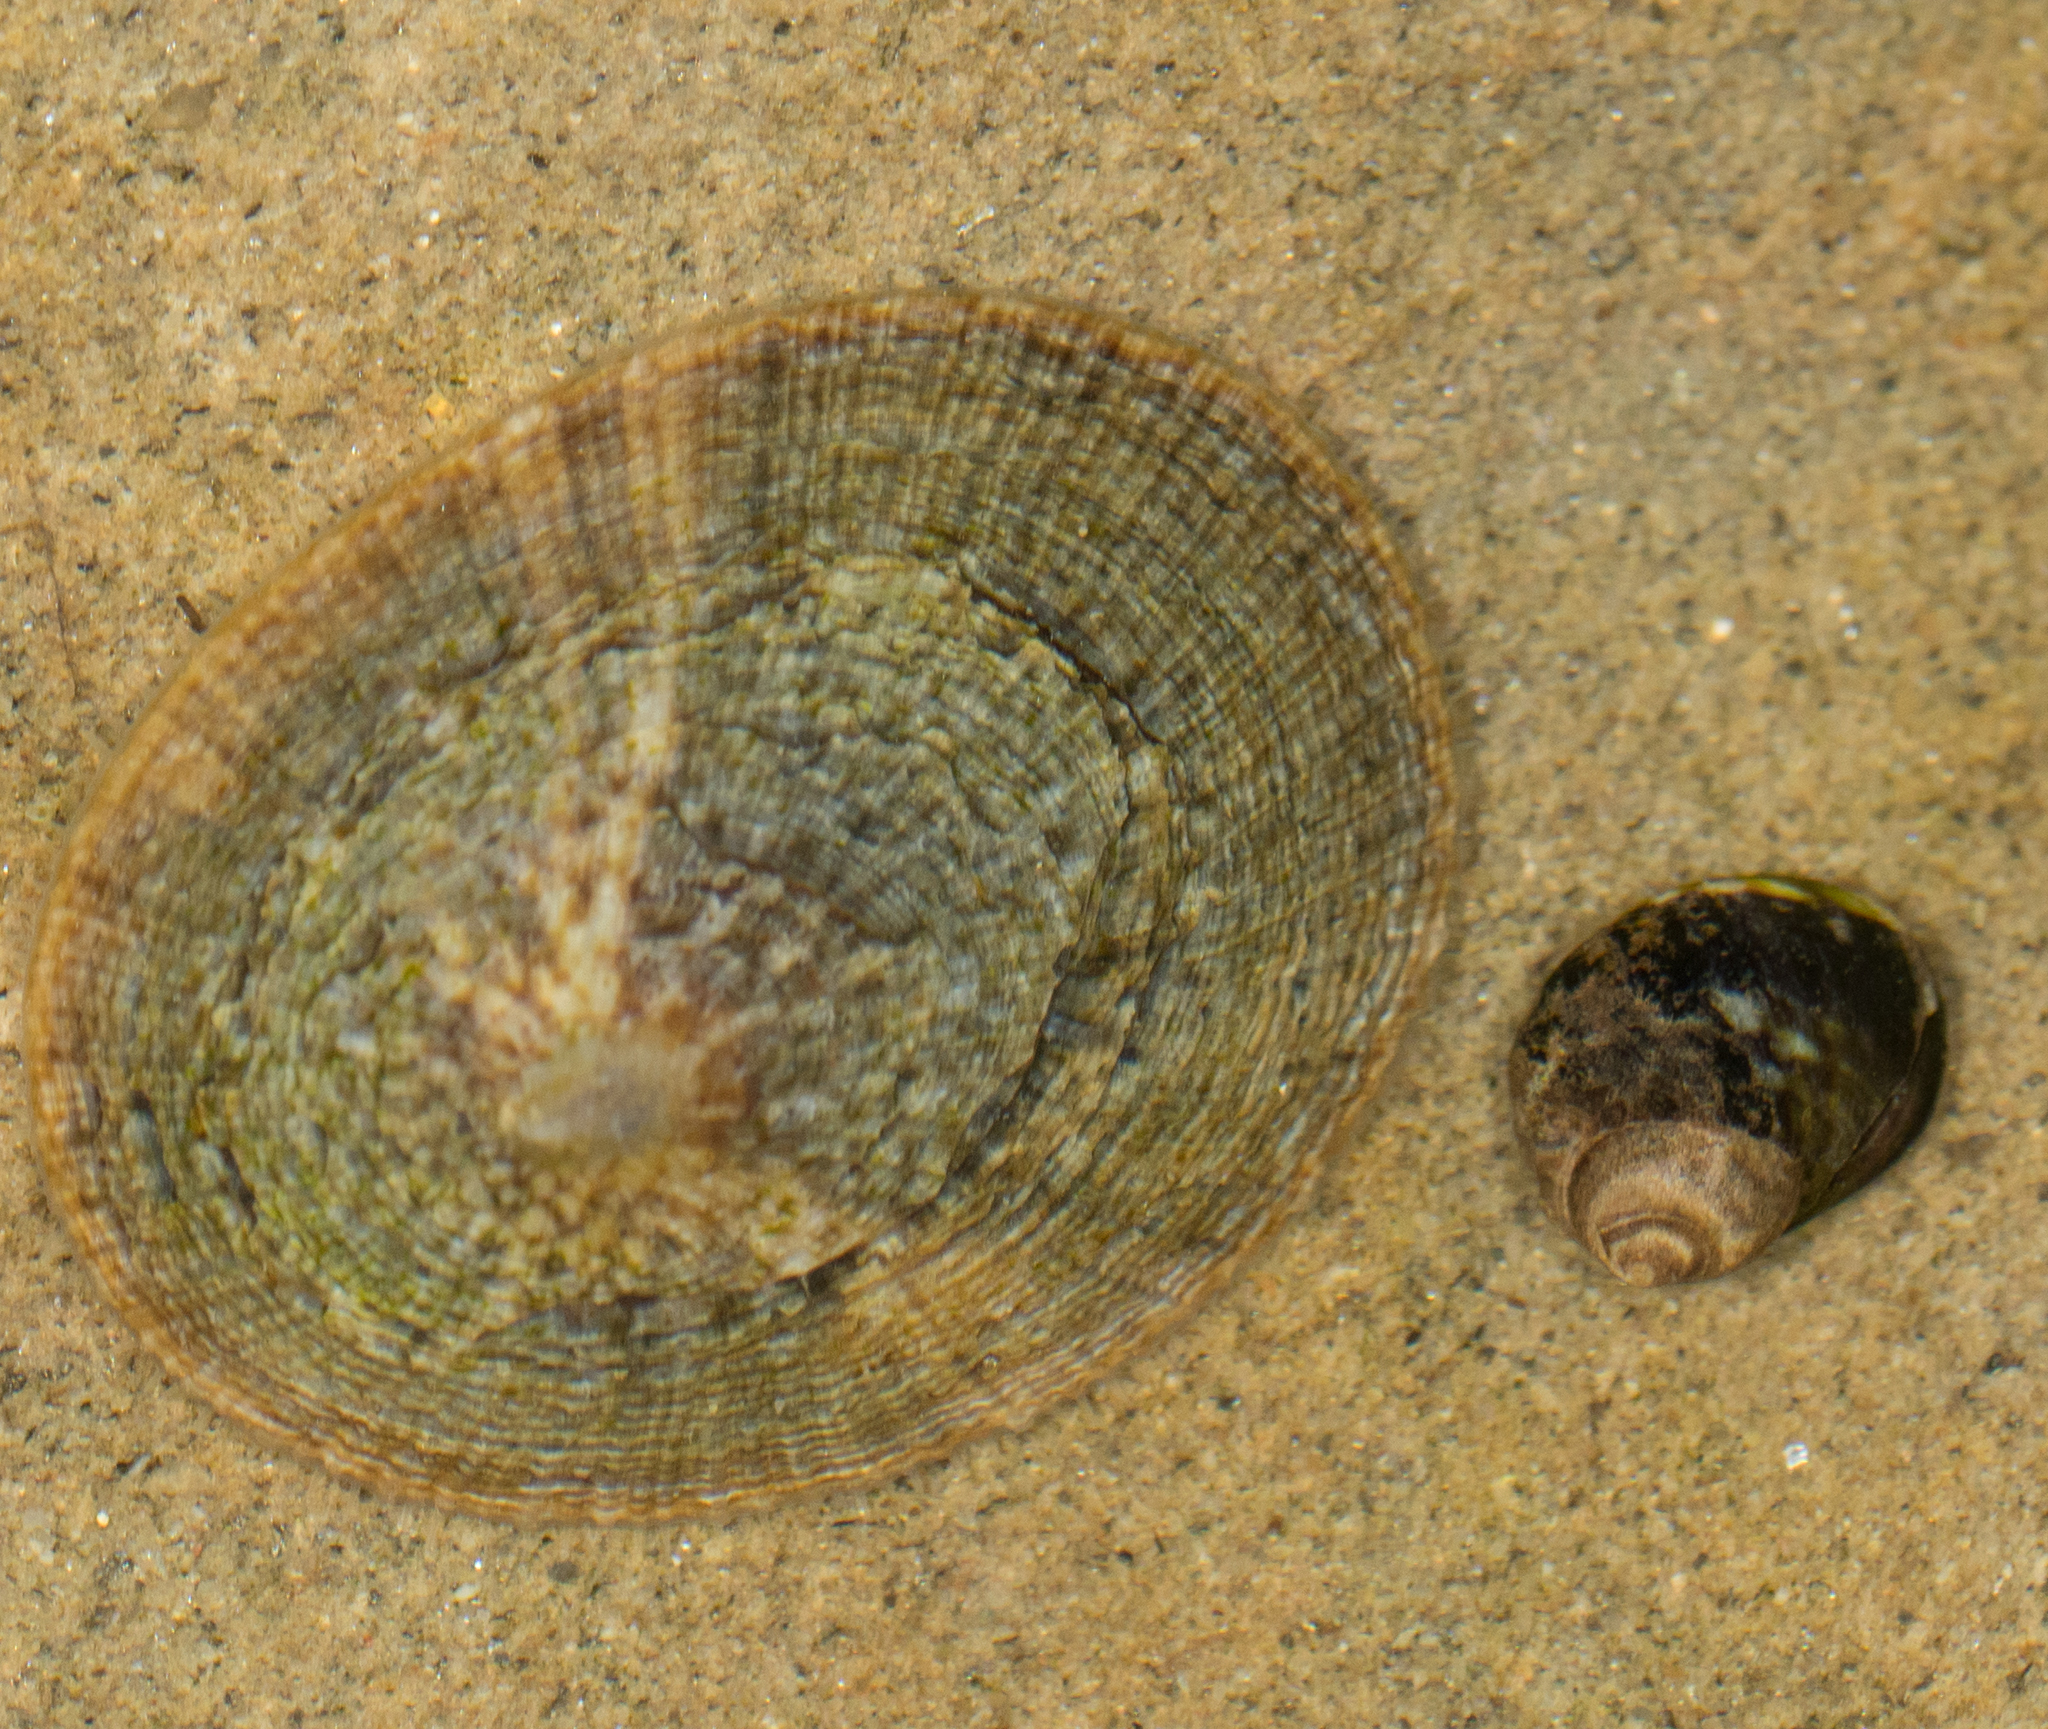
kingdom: Animalia
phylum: Mollusca
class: Gastropoda
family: Lottiidae
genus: Lottia
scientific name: Lottia limatula
